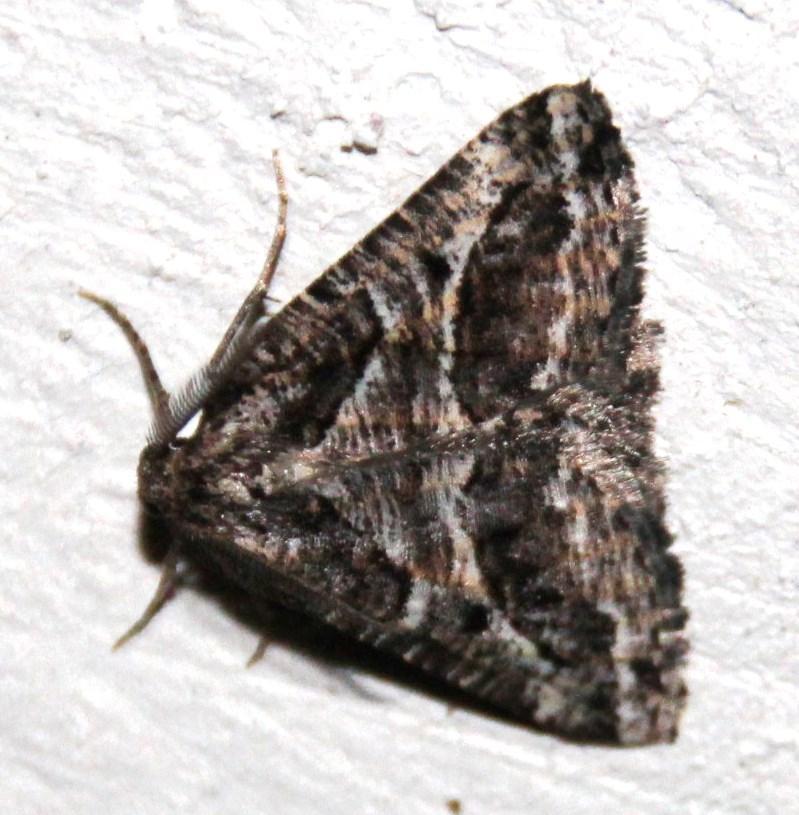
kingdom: Animalia
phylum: Arthropoda
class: Insecta
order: Lepidoptera
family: Geometridae
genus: Hypotephrina
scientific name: Hypotephrina confertaria
